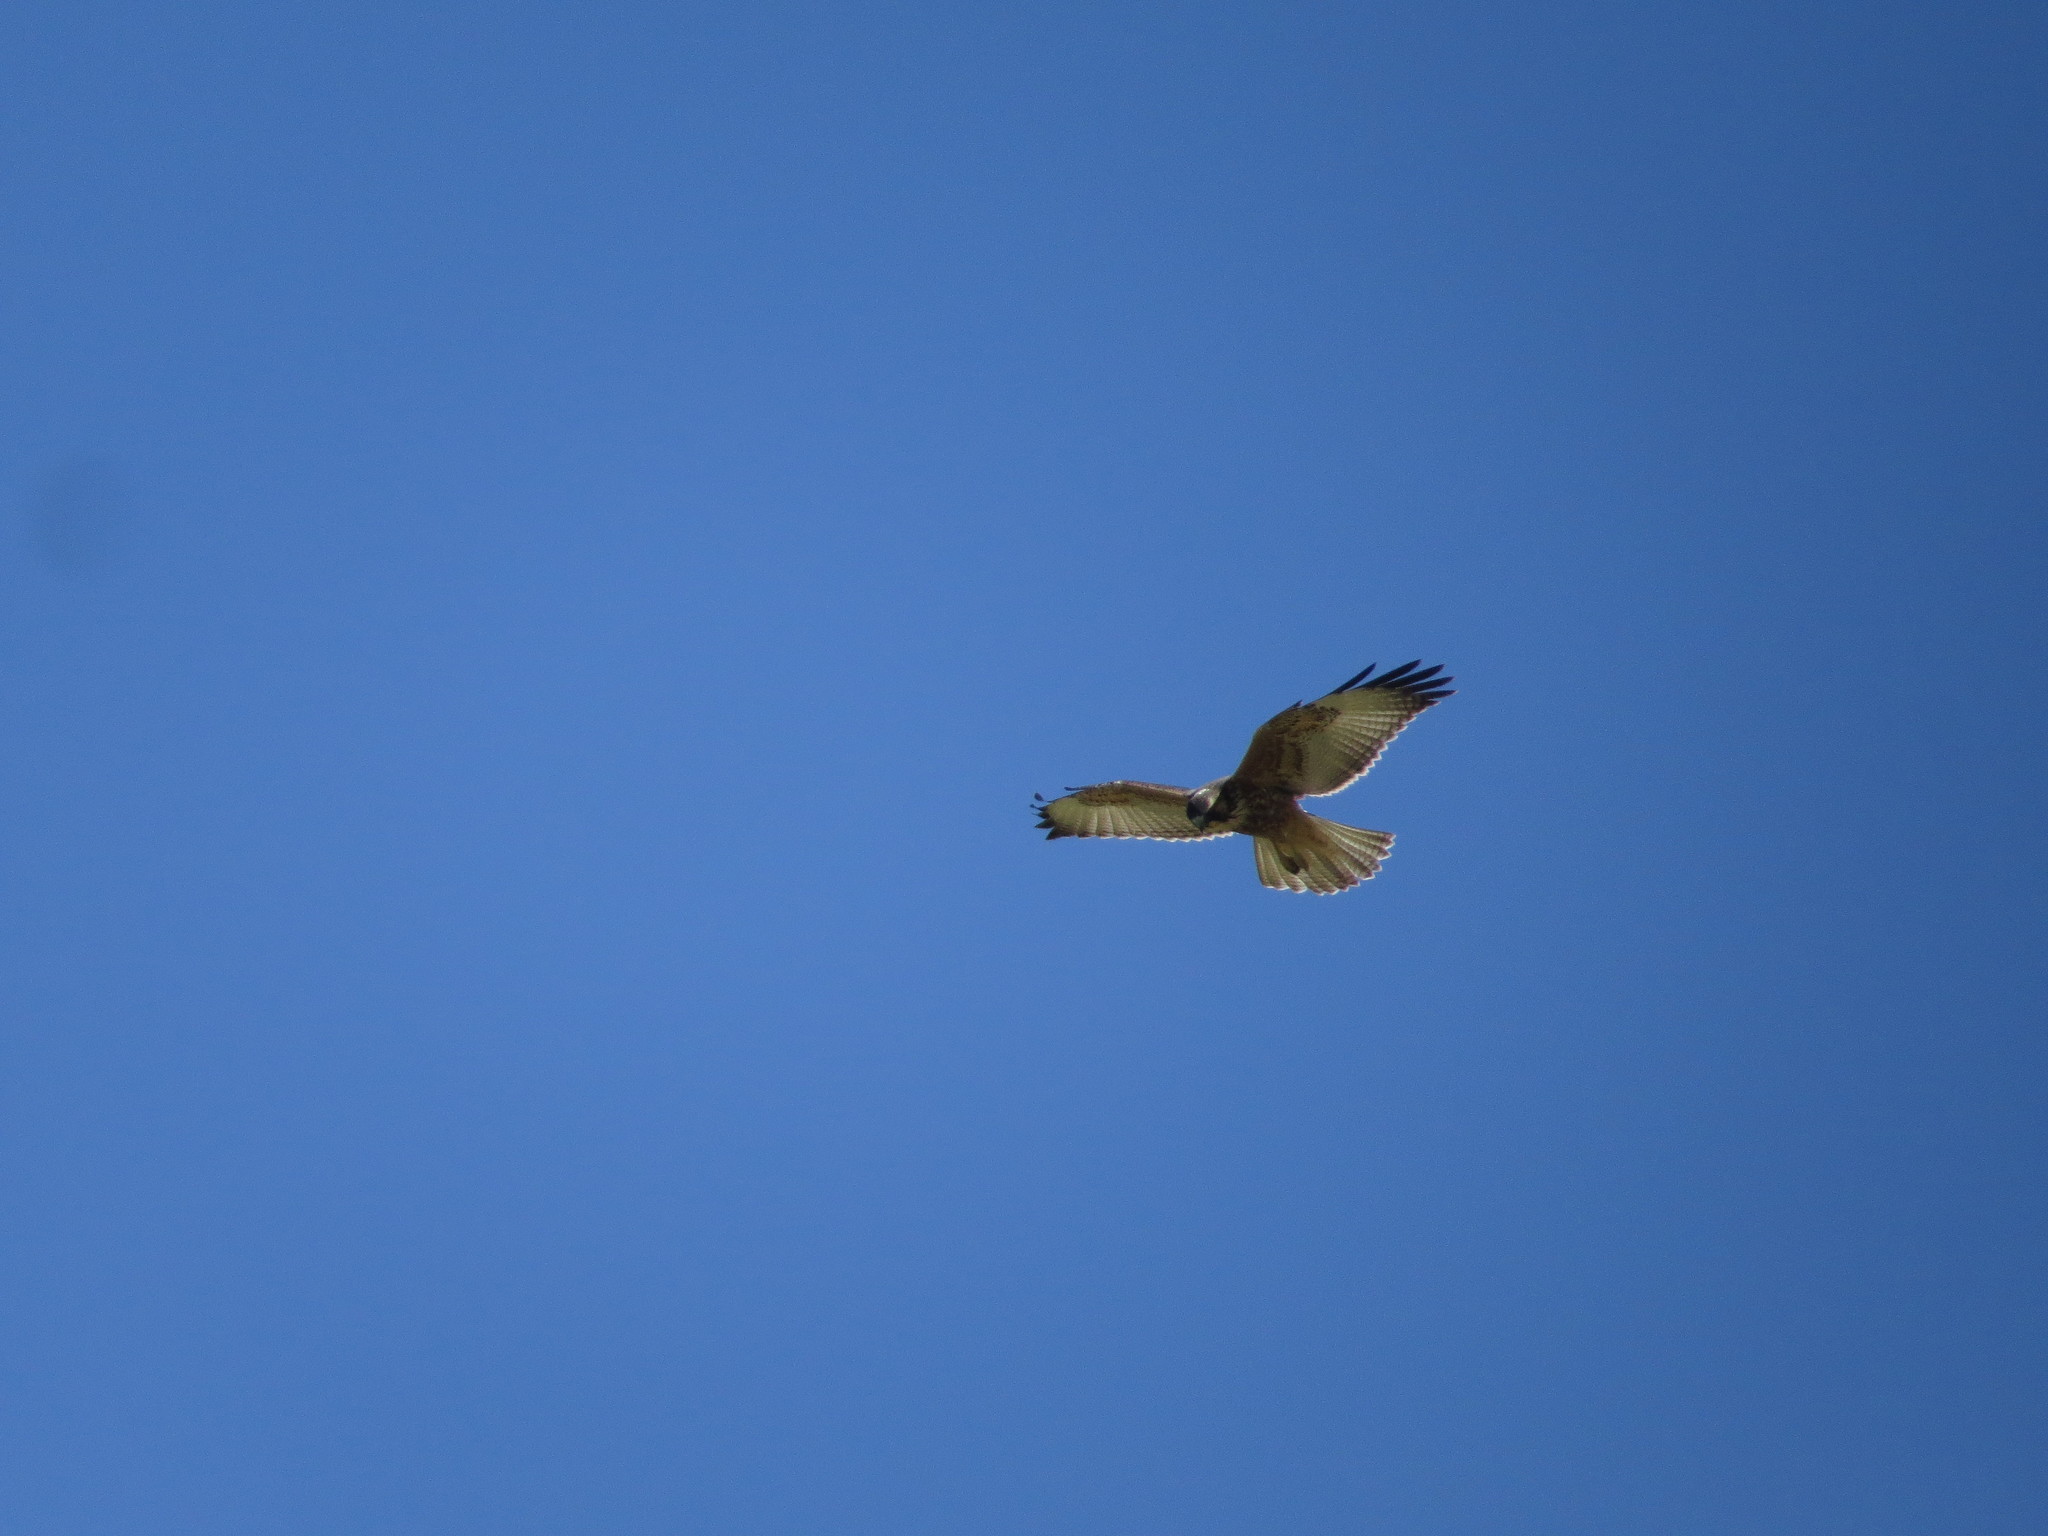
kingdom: Animalia
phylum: Chordata
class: Aves
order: Accipitriformes
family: Accipitridae
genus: Buteo
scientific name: Buteo polyosoma
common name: Variable hawk
